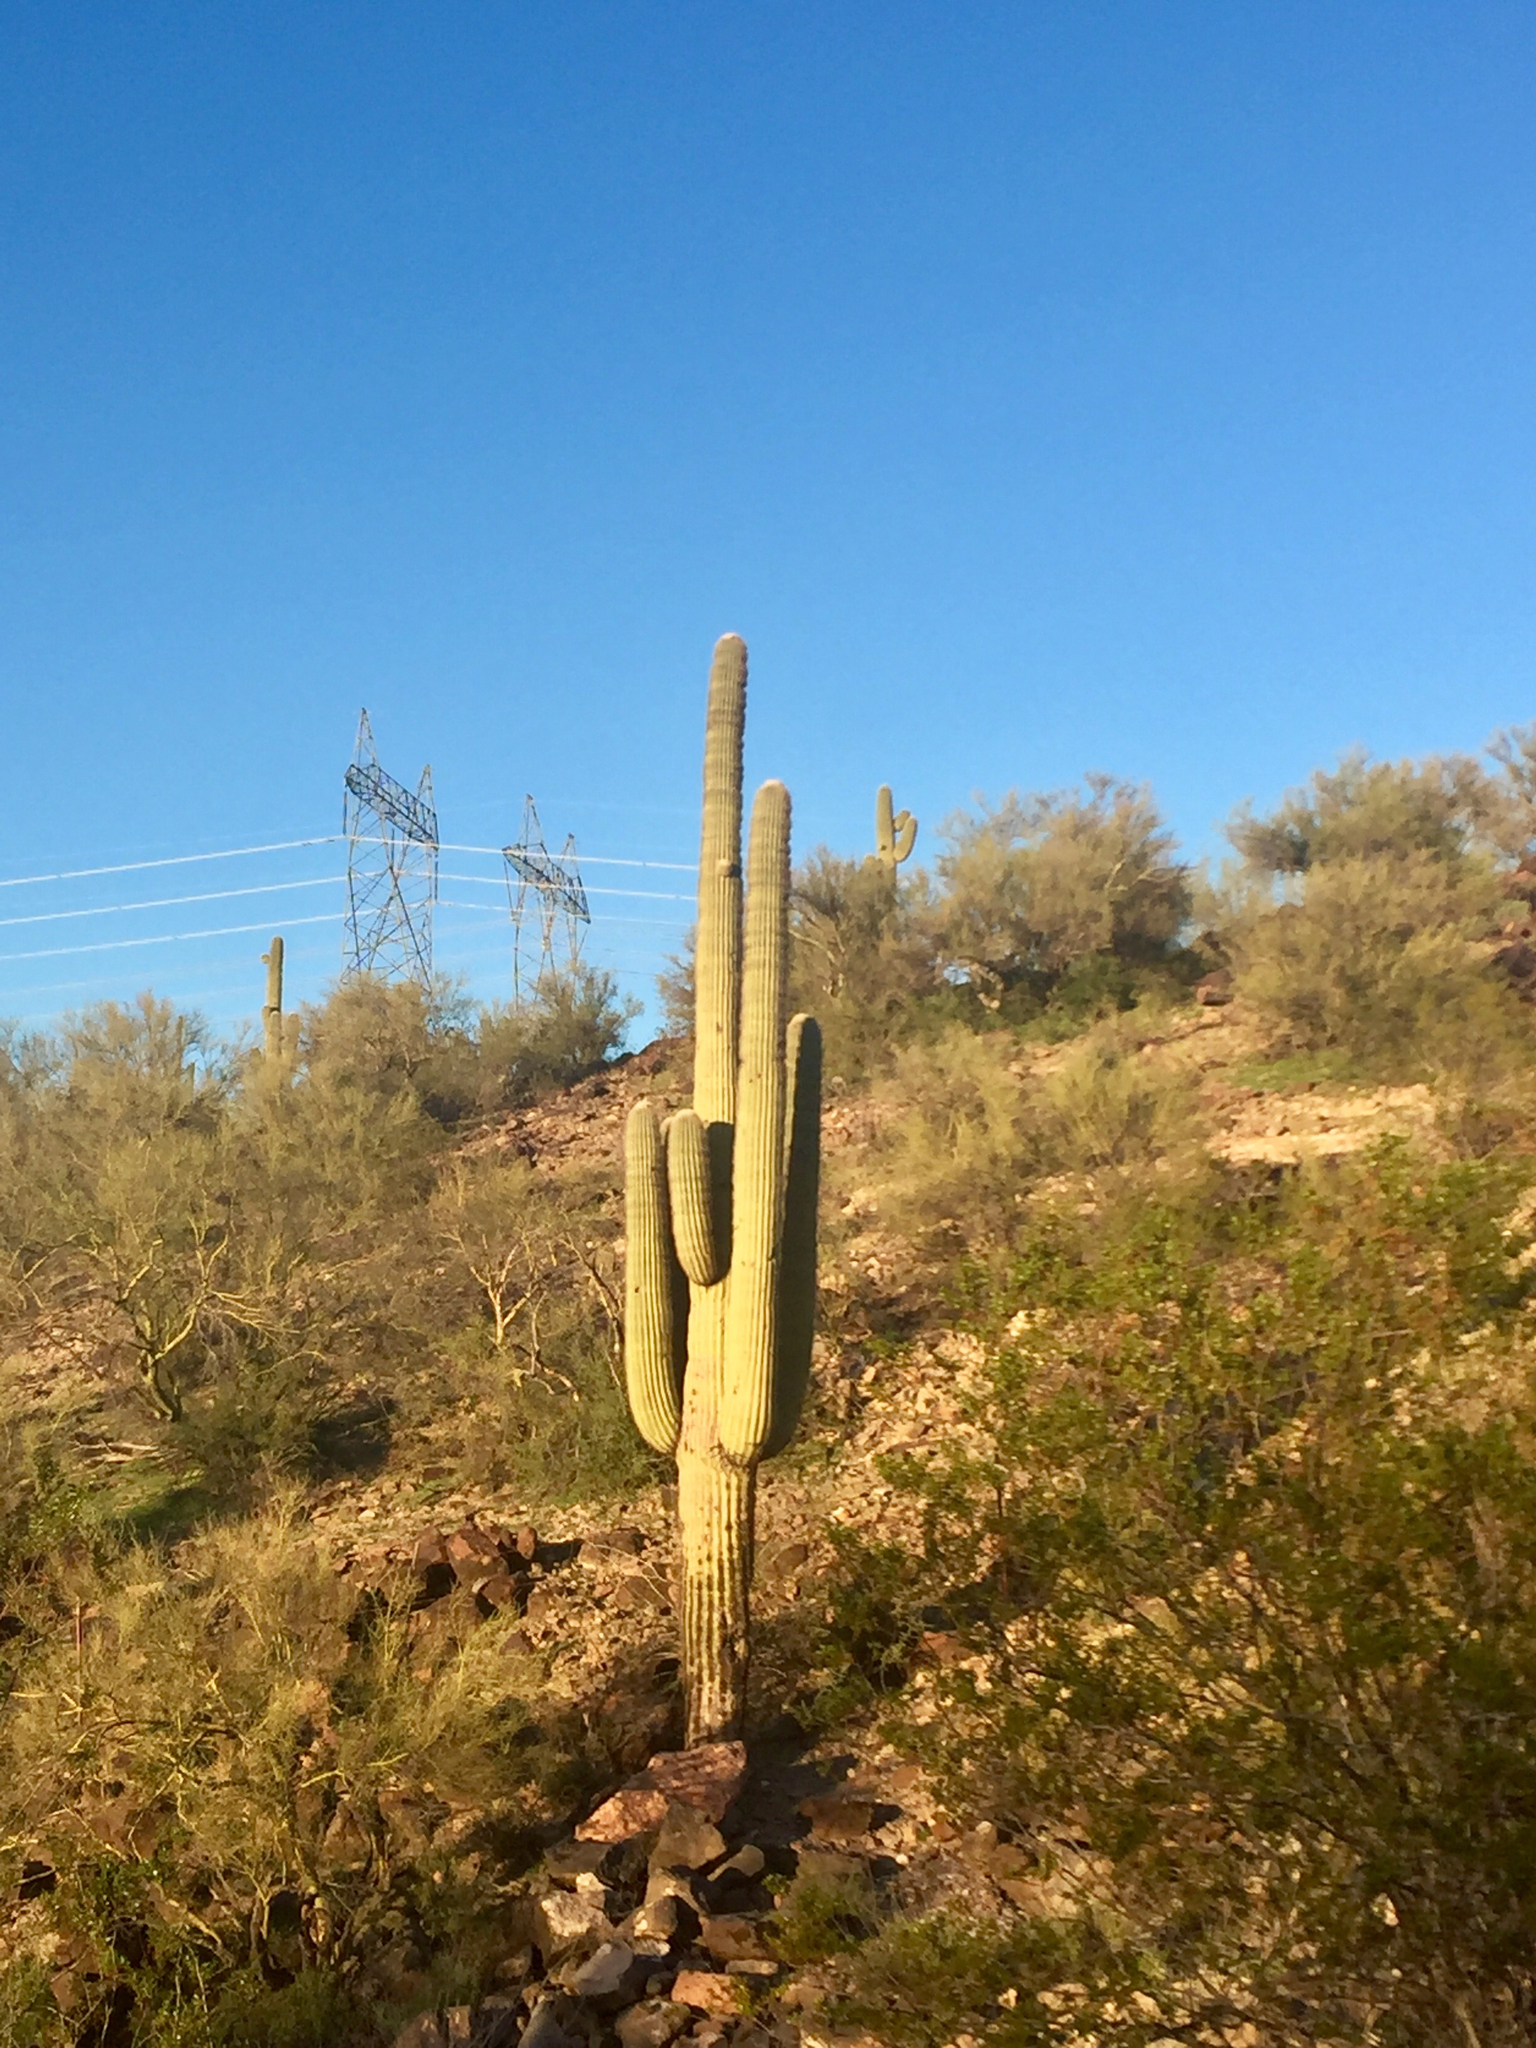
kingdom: Plantae
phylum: Tracheophyta
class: Magnoliopsida
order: Caryophyllales
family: Cactaceae
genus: Carnegiea
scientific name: Carnegiea gigantea
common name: Saguaro
